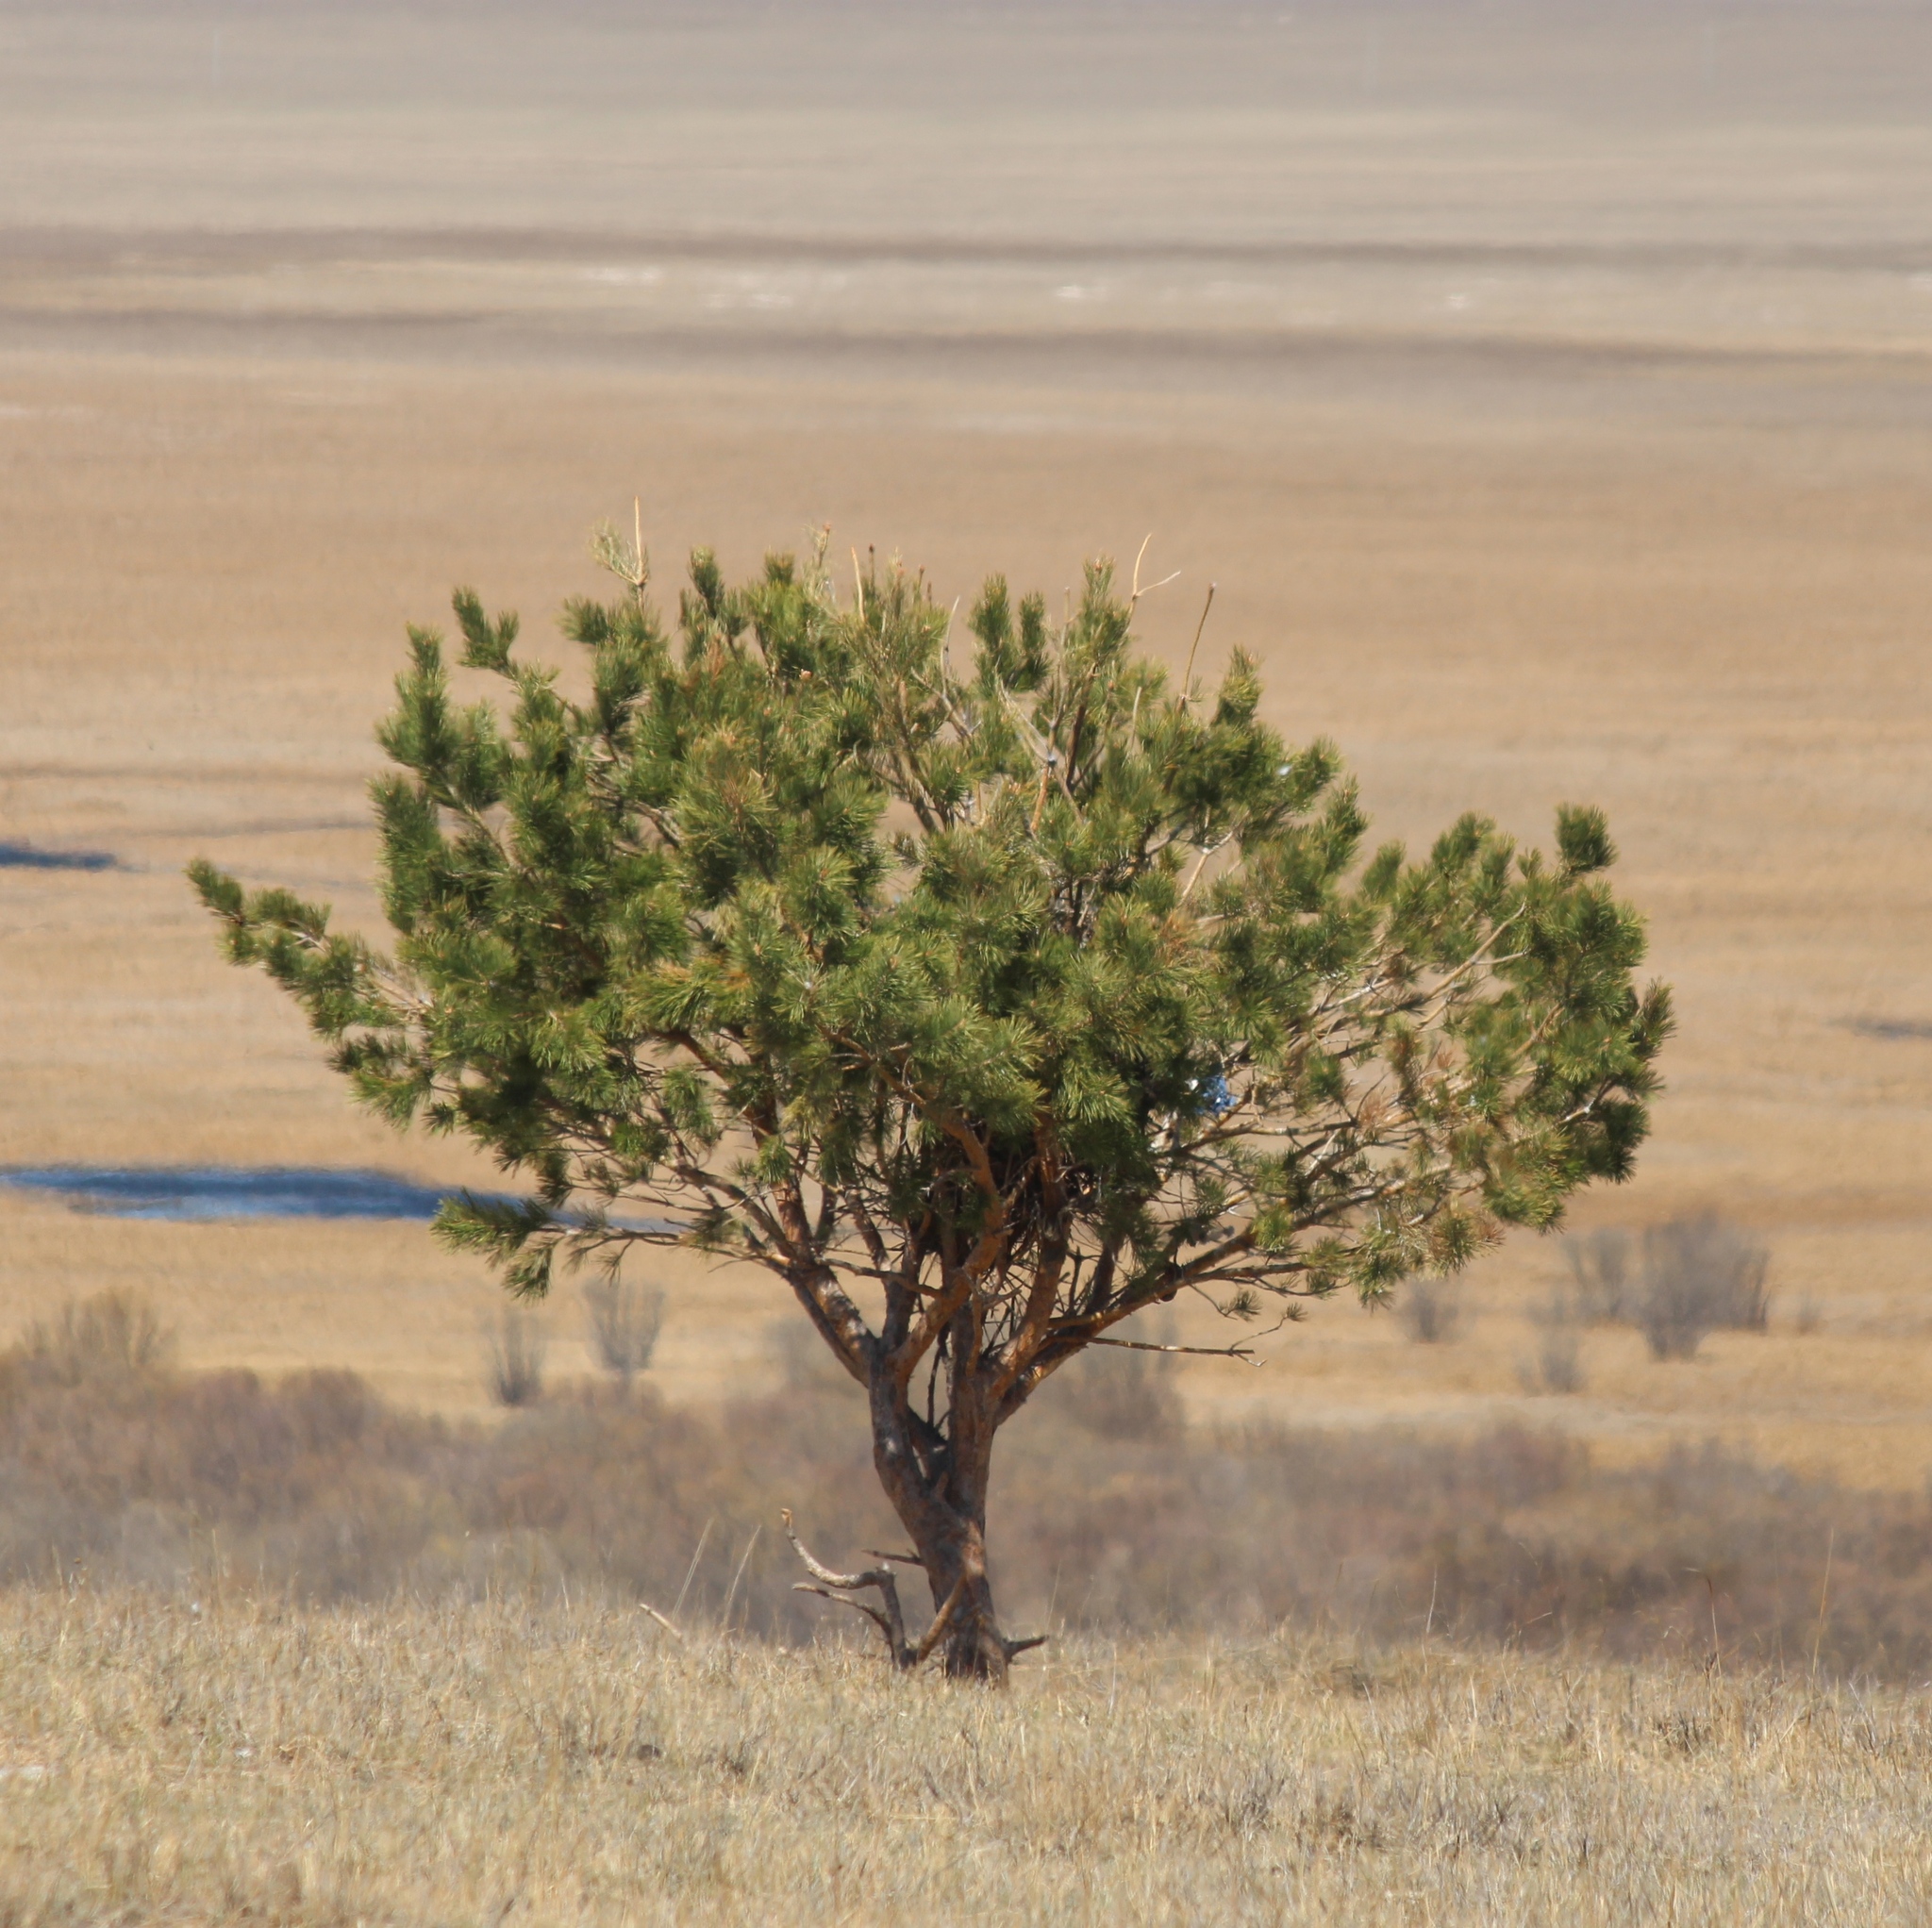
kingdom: Plantae
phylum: Tracheophyta
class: Pinopsida
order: Pinales
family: Pinaceae
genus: Pinus
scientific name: Pinus sylvestris
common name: Scots pine
